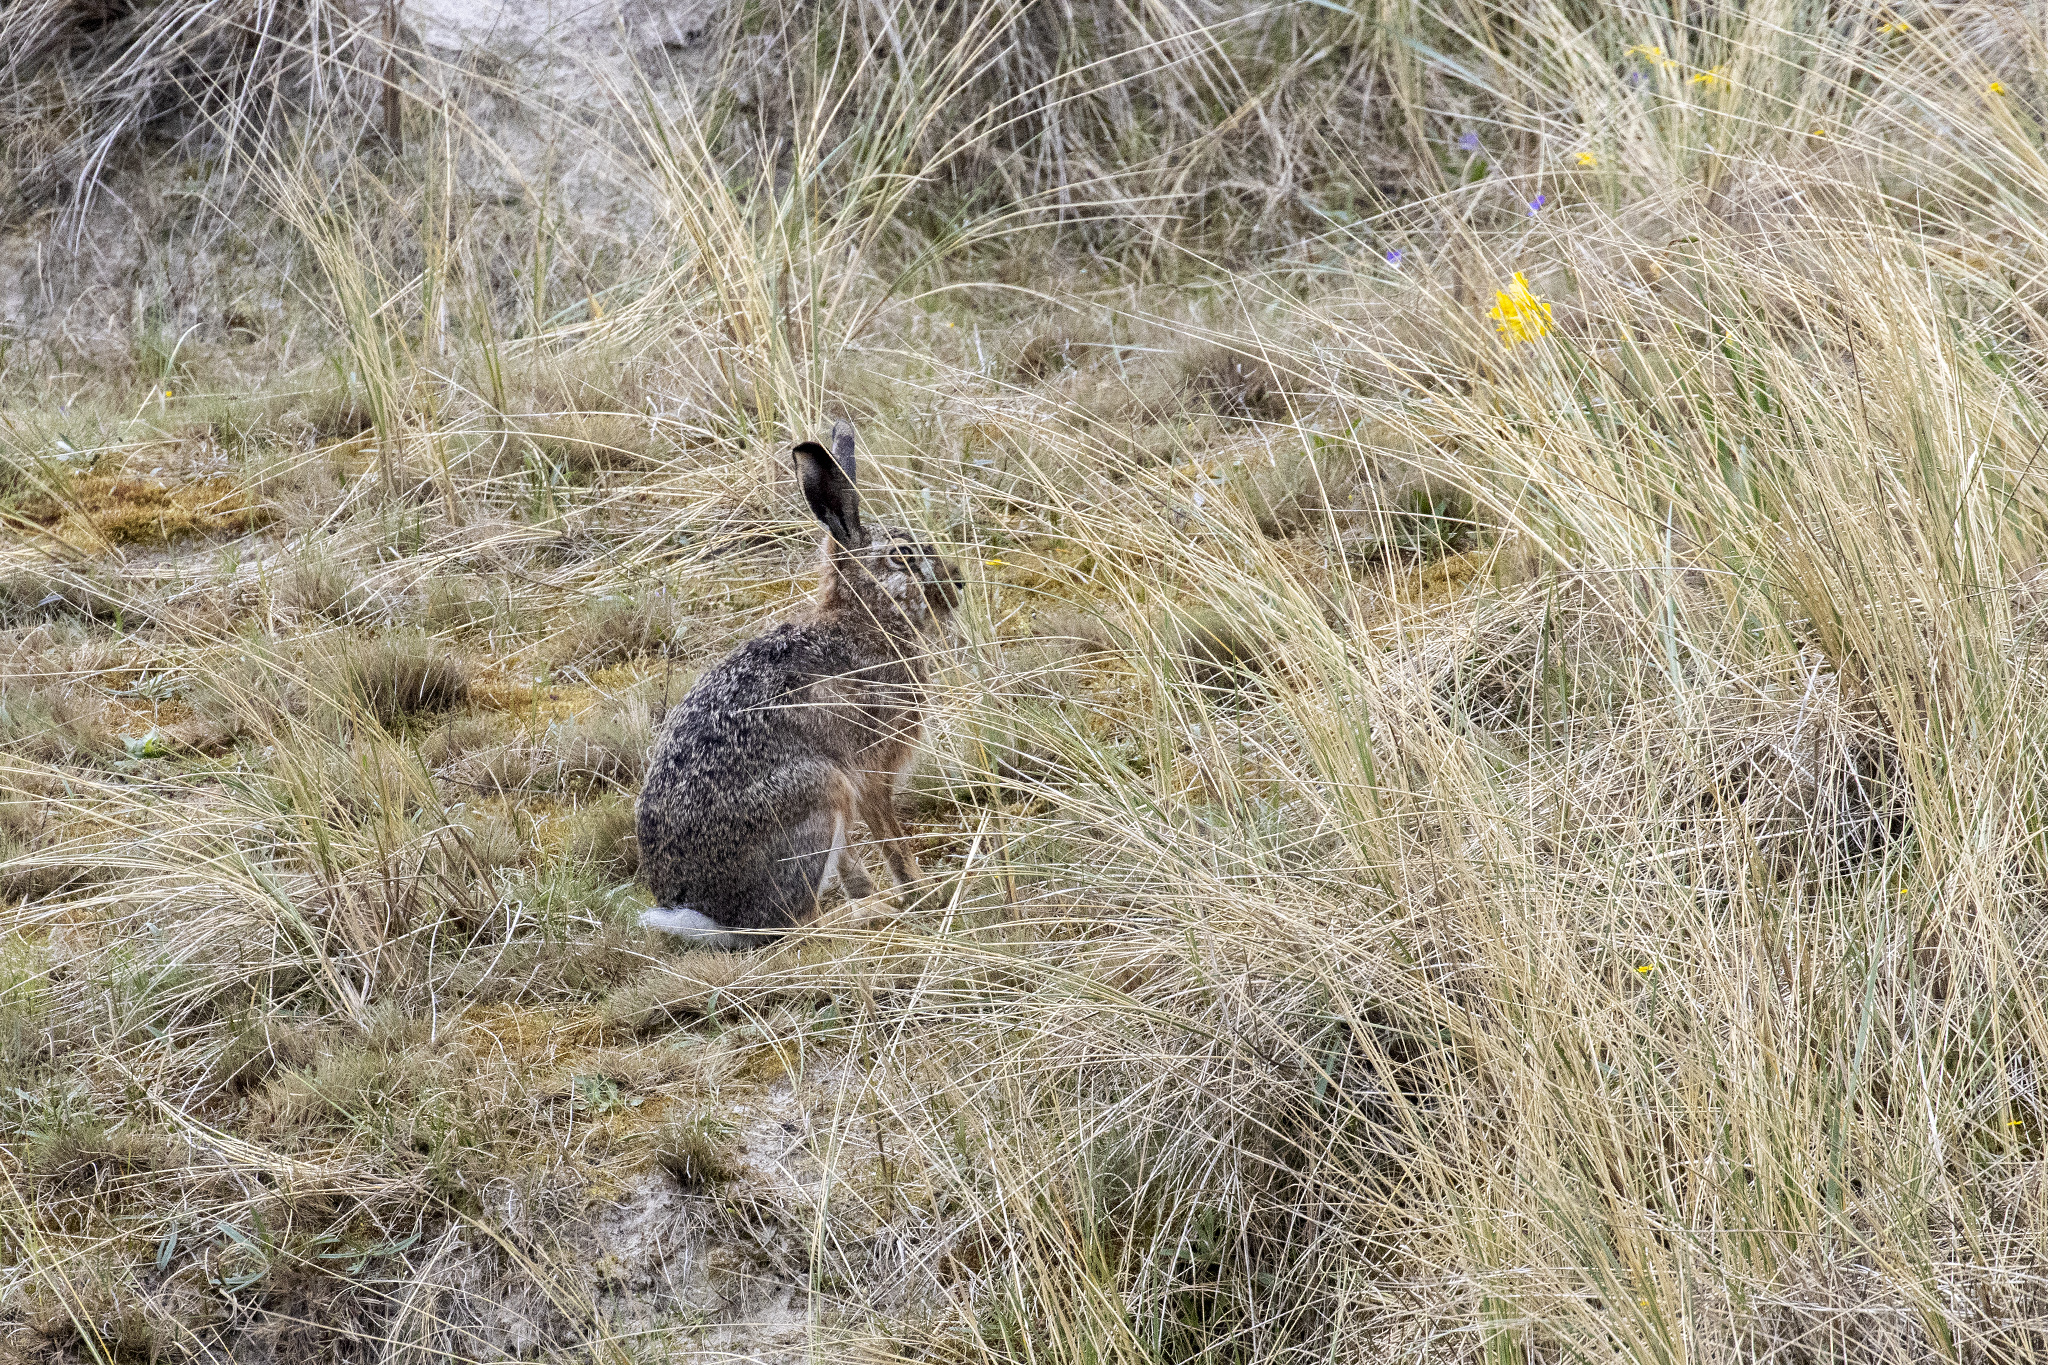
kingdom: Animalia
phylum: Chordata
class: Mammalia
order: Lagomorpha
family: Leporidae
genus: Lepus
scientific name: Lepus europaeus
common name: European hare
